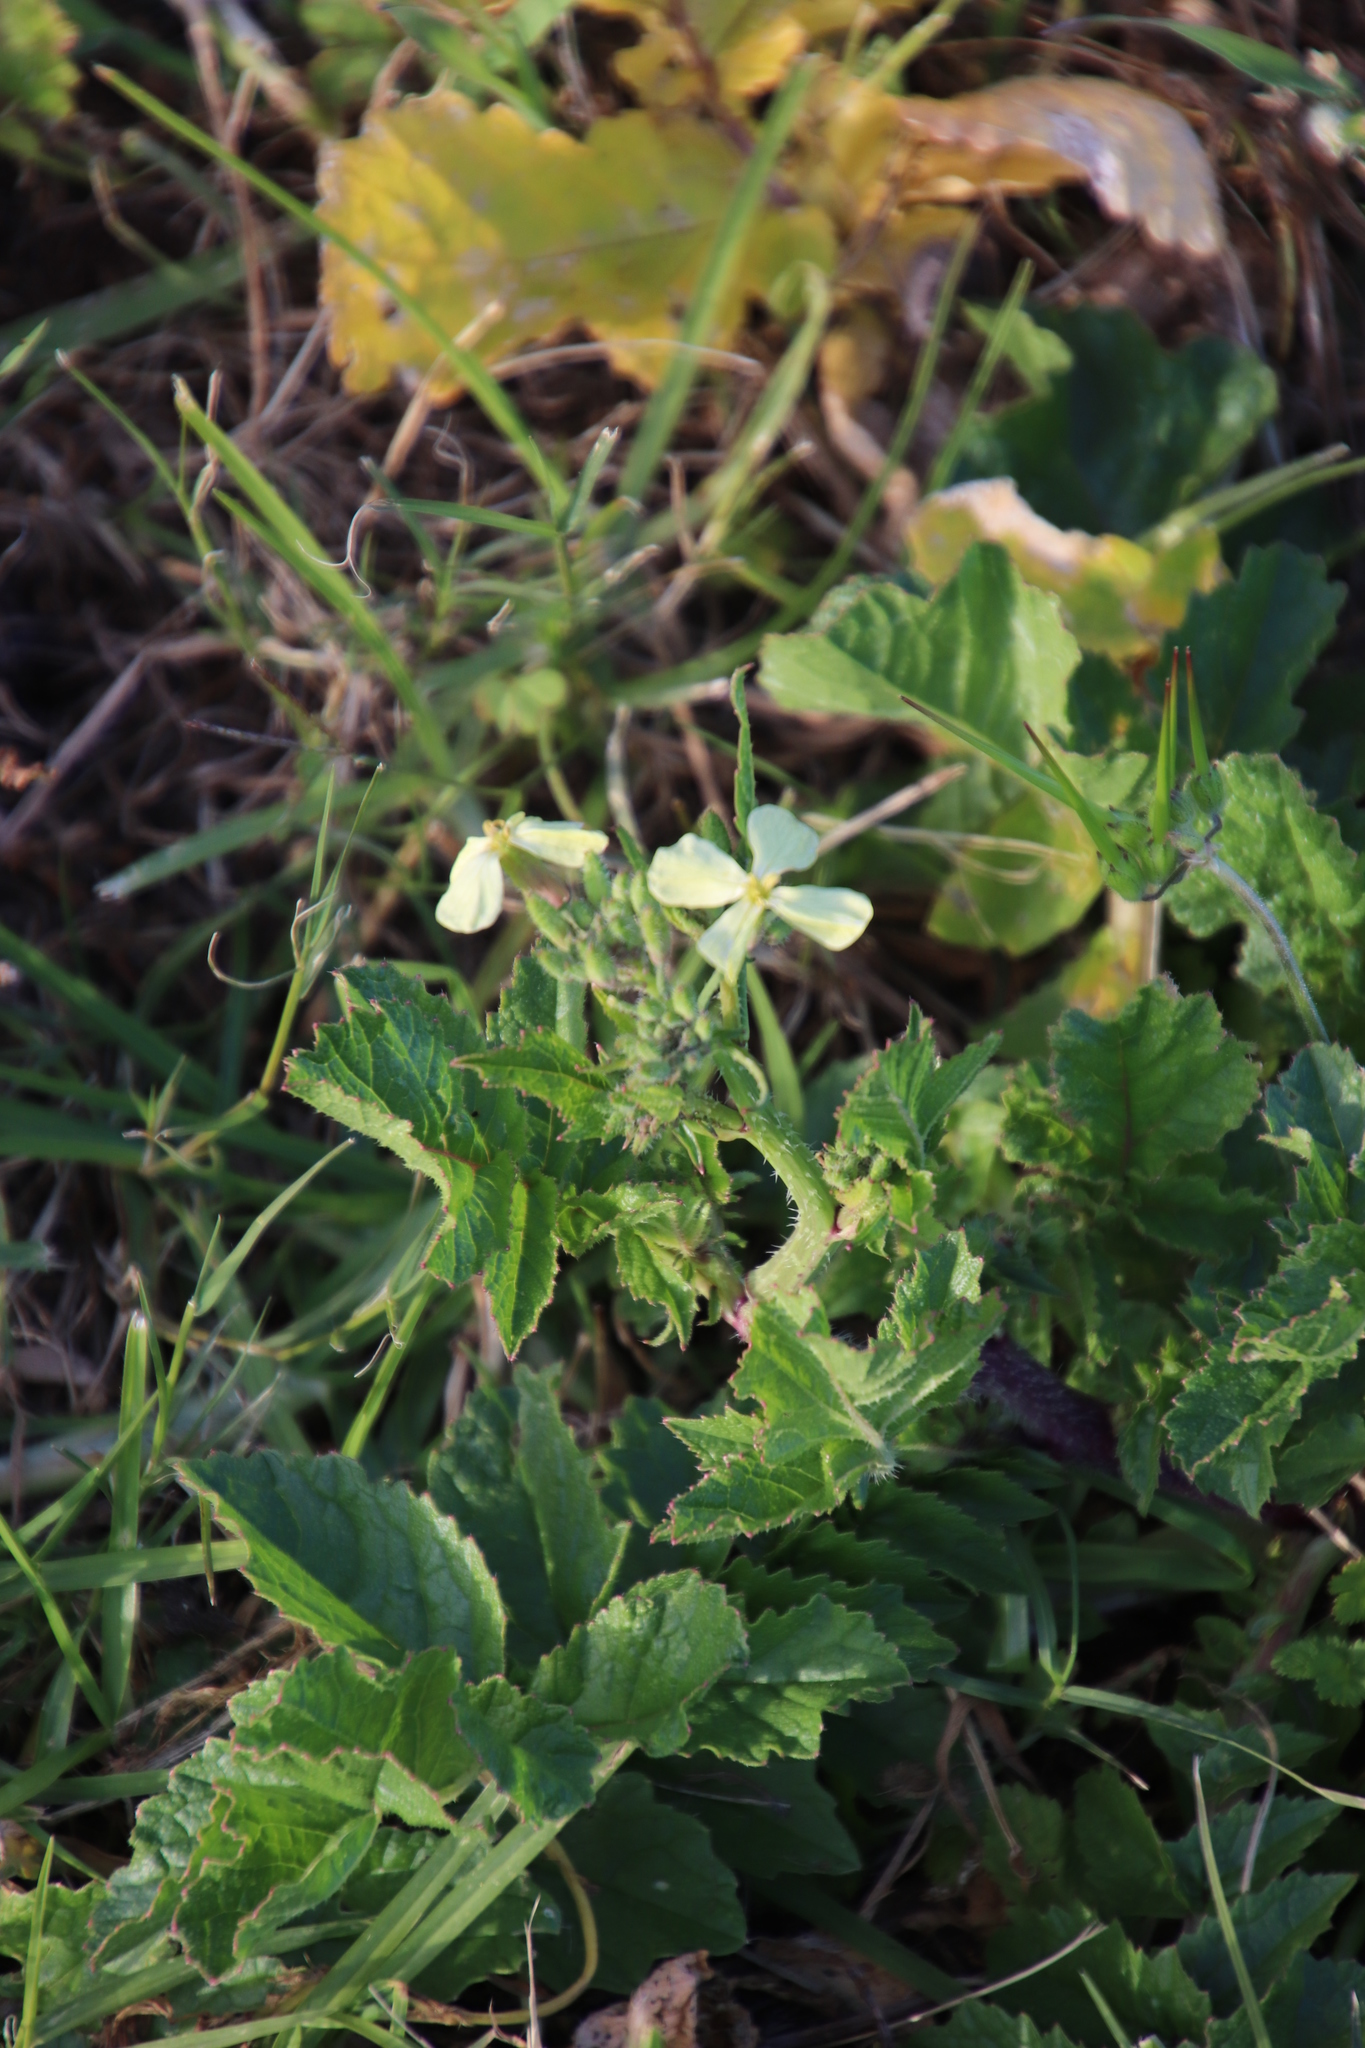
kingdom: Plantae
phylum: Tracheophyta
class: Magnoliopsida
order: Brassicales
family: Brassicaceae
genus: Raphanus
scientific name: Raphanus raphanistrum
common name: Wild radish
